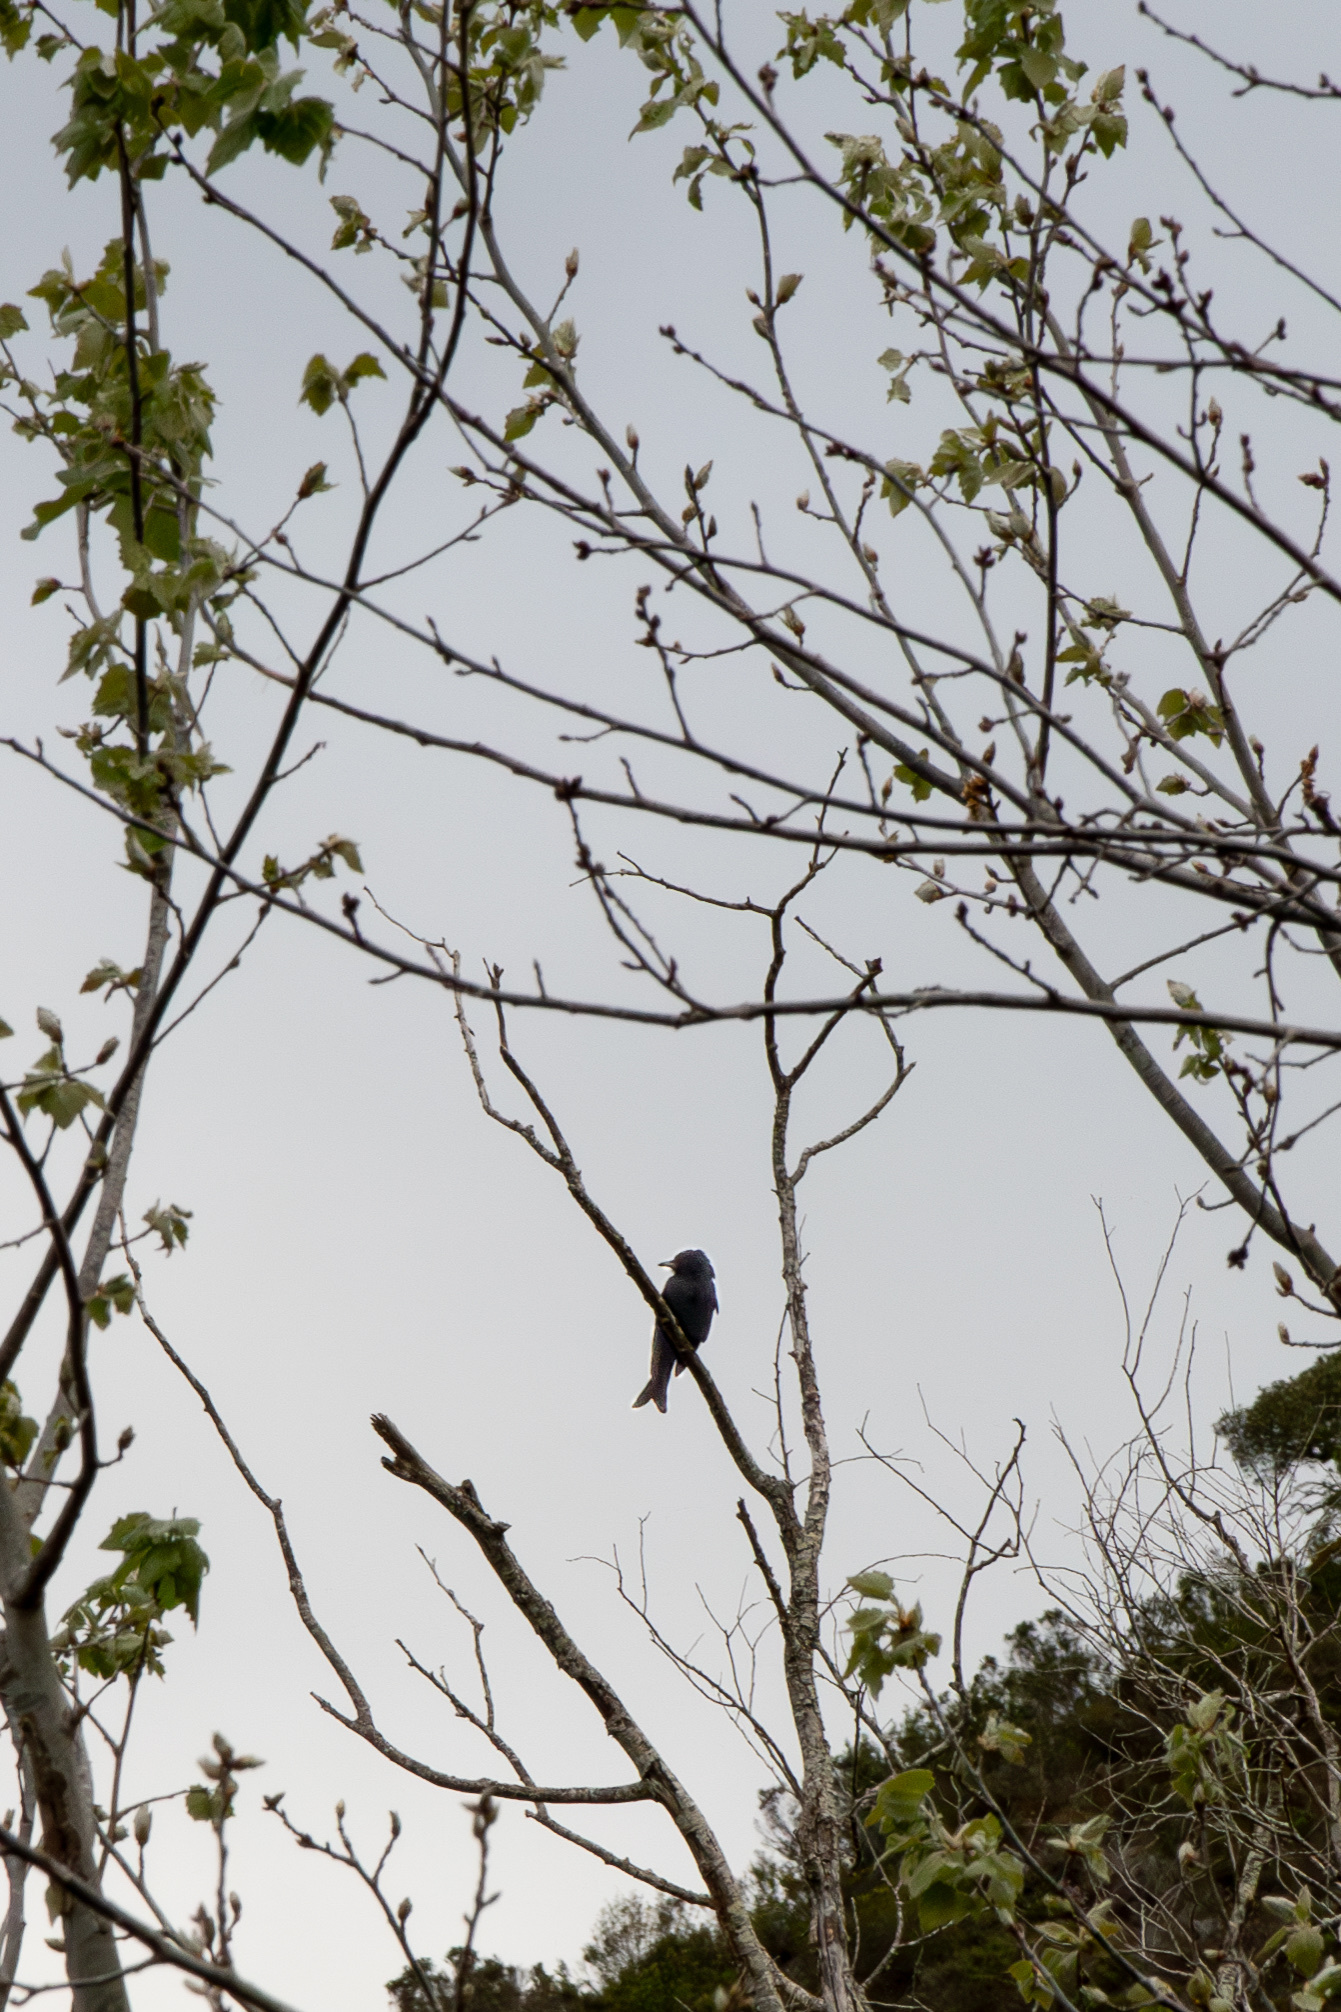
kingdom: Animalia
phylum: Chordata
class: Aves
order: Passeriformes
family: Dicruridae
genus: Dicrurus
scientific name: Dicrurus adsimilis
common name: Fork-tailed drongo
